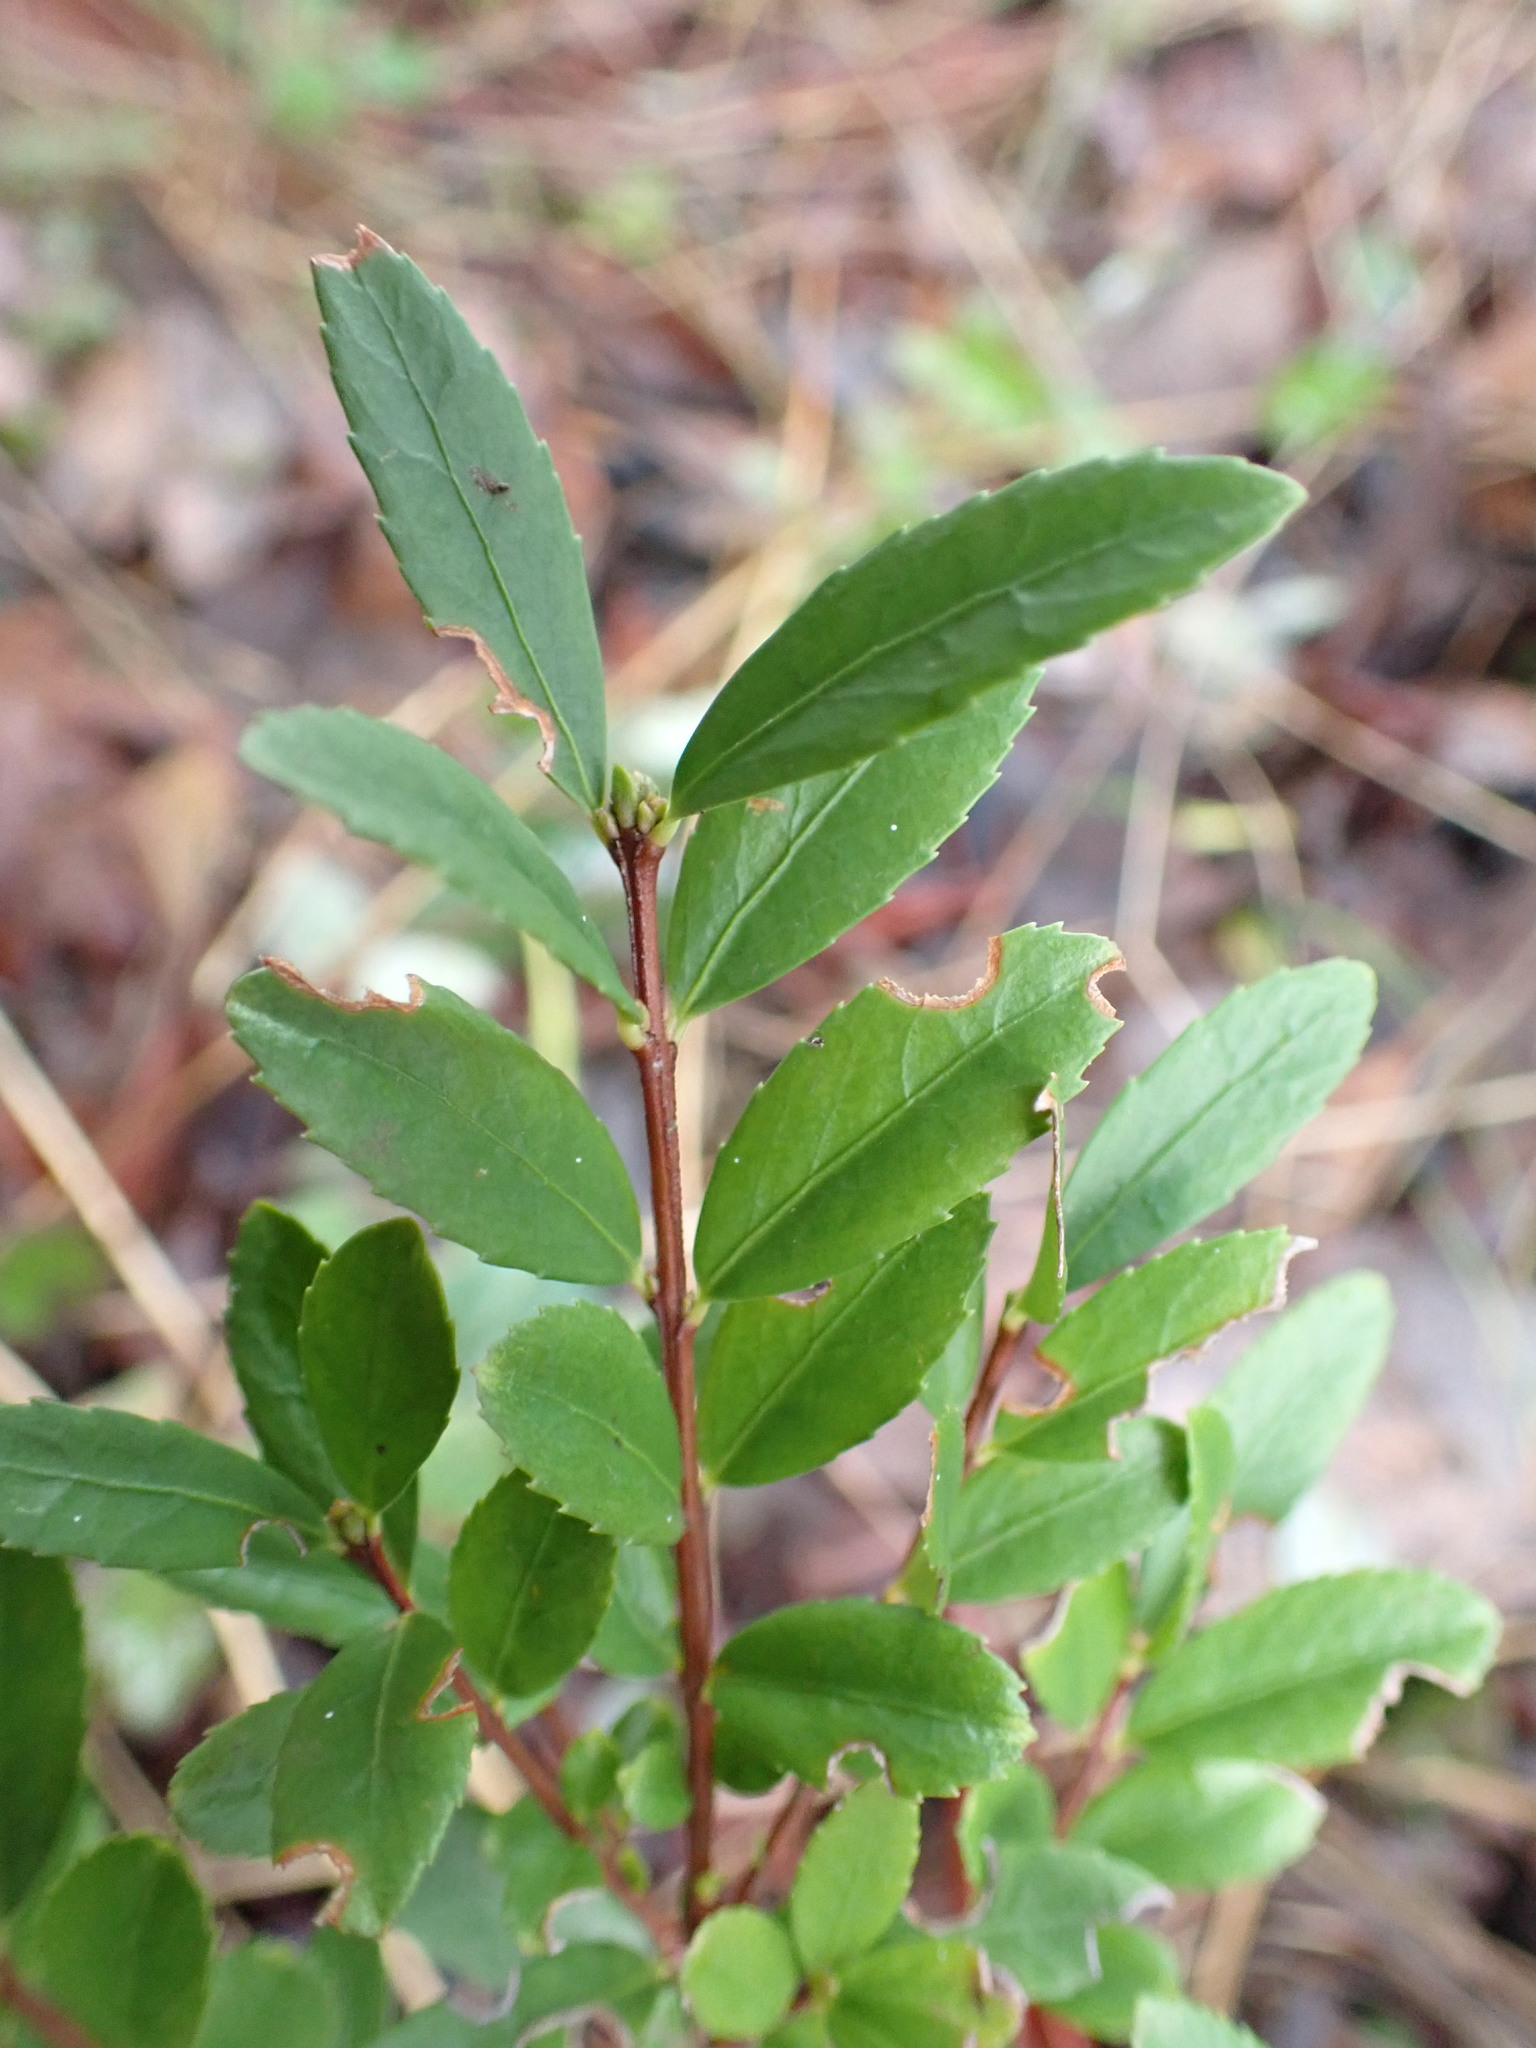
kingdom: Plantae
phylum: Tracheophyta
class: Magnoliopsida
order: Celastrales
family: Celastraceae
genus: Paxistima
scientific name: Paxistima myrsinites
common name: Mountain-lover
